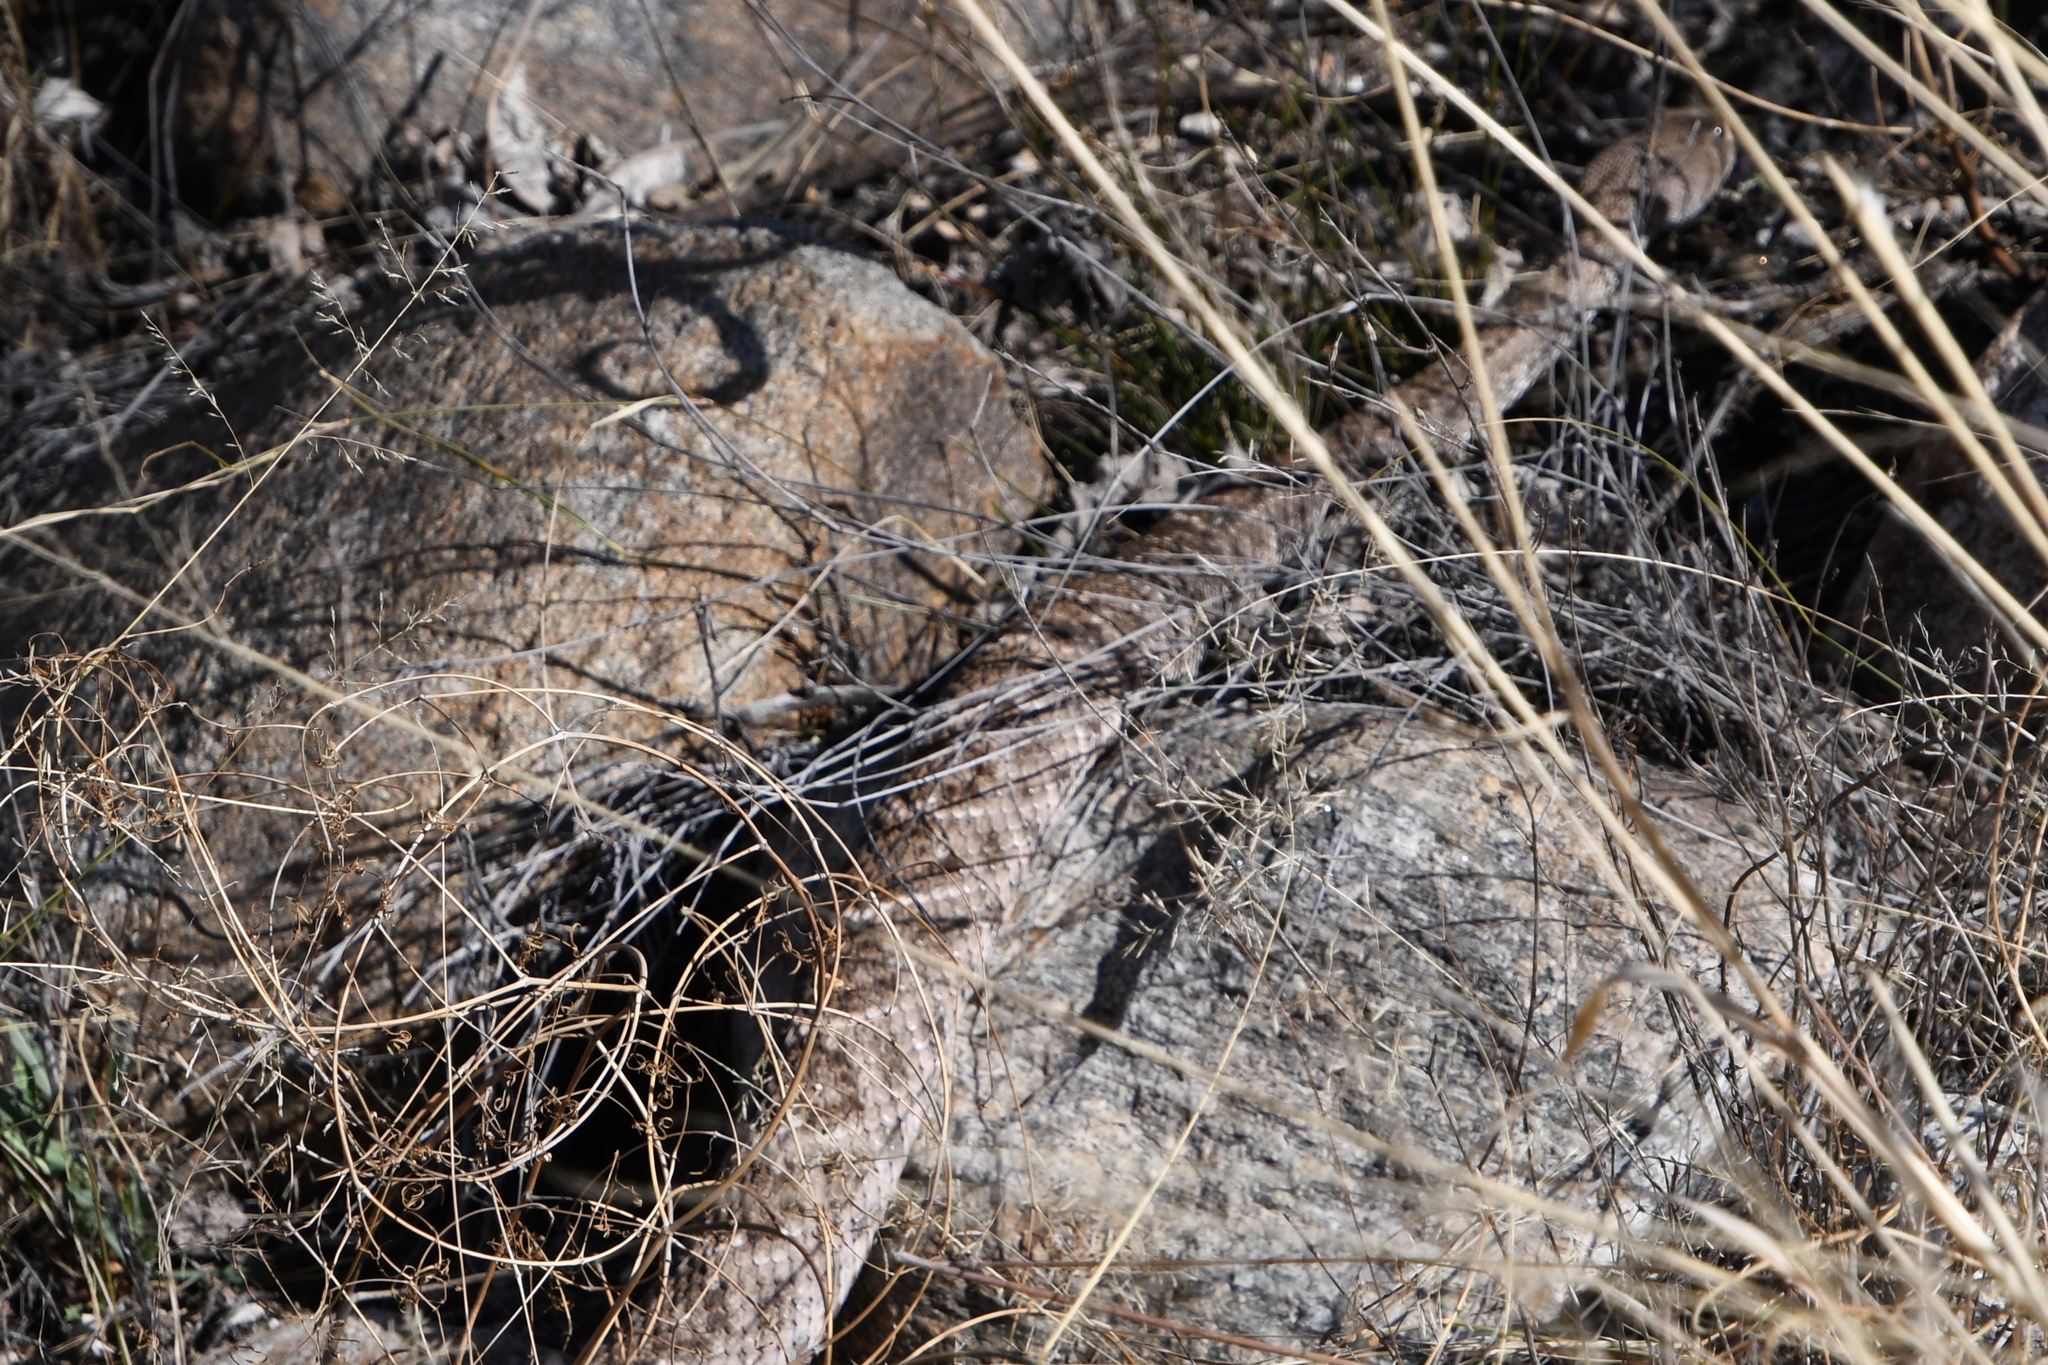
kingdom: Animalia
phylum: Chordata
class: Squamata
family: Viperidae
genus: Crotalus
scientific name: Crotalus atrox
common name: Western diamond-backed rattlesnake
